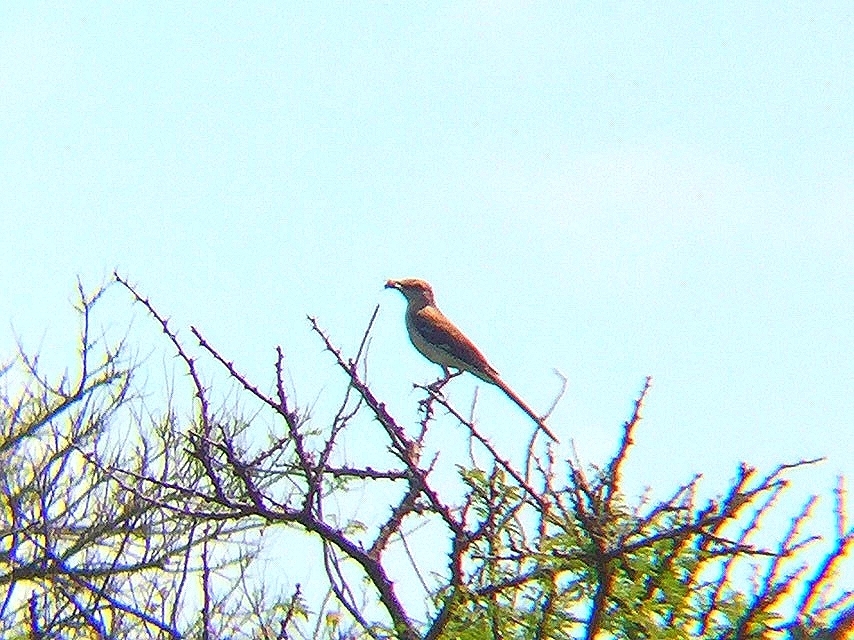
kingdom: Animalia
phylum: Chordata
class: Aves
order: Passeriformes
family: Mimidae
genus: Mimus
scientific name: Mimus polyglottos
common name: Northern mockingbird
